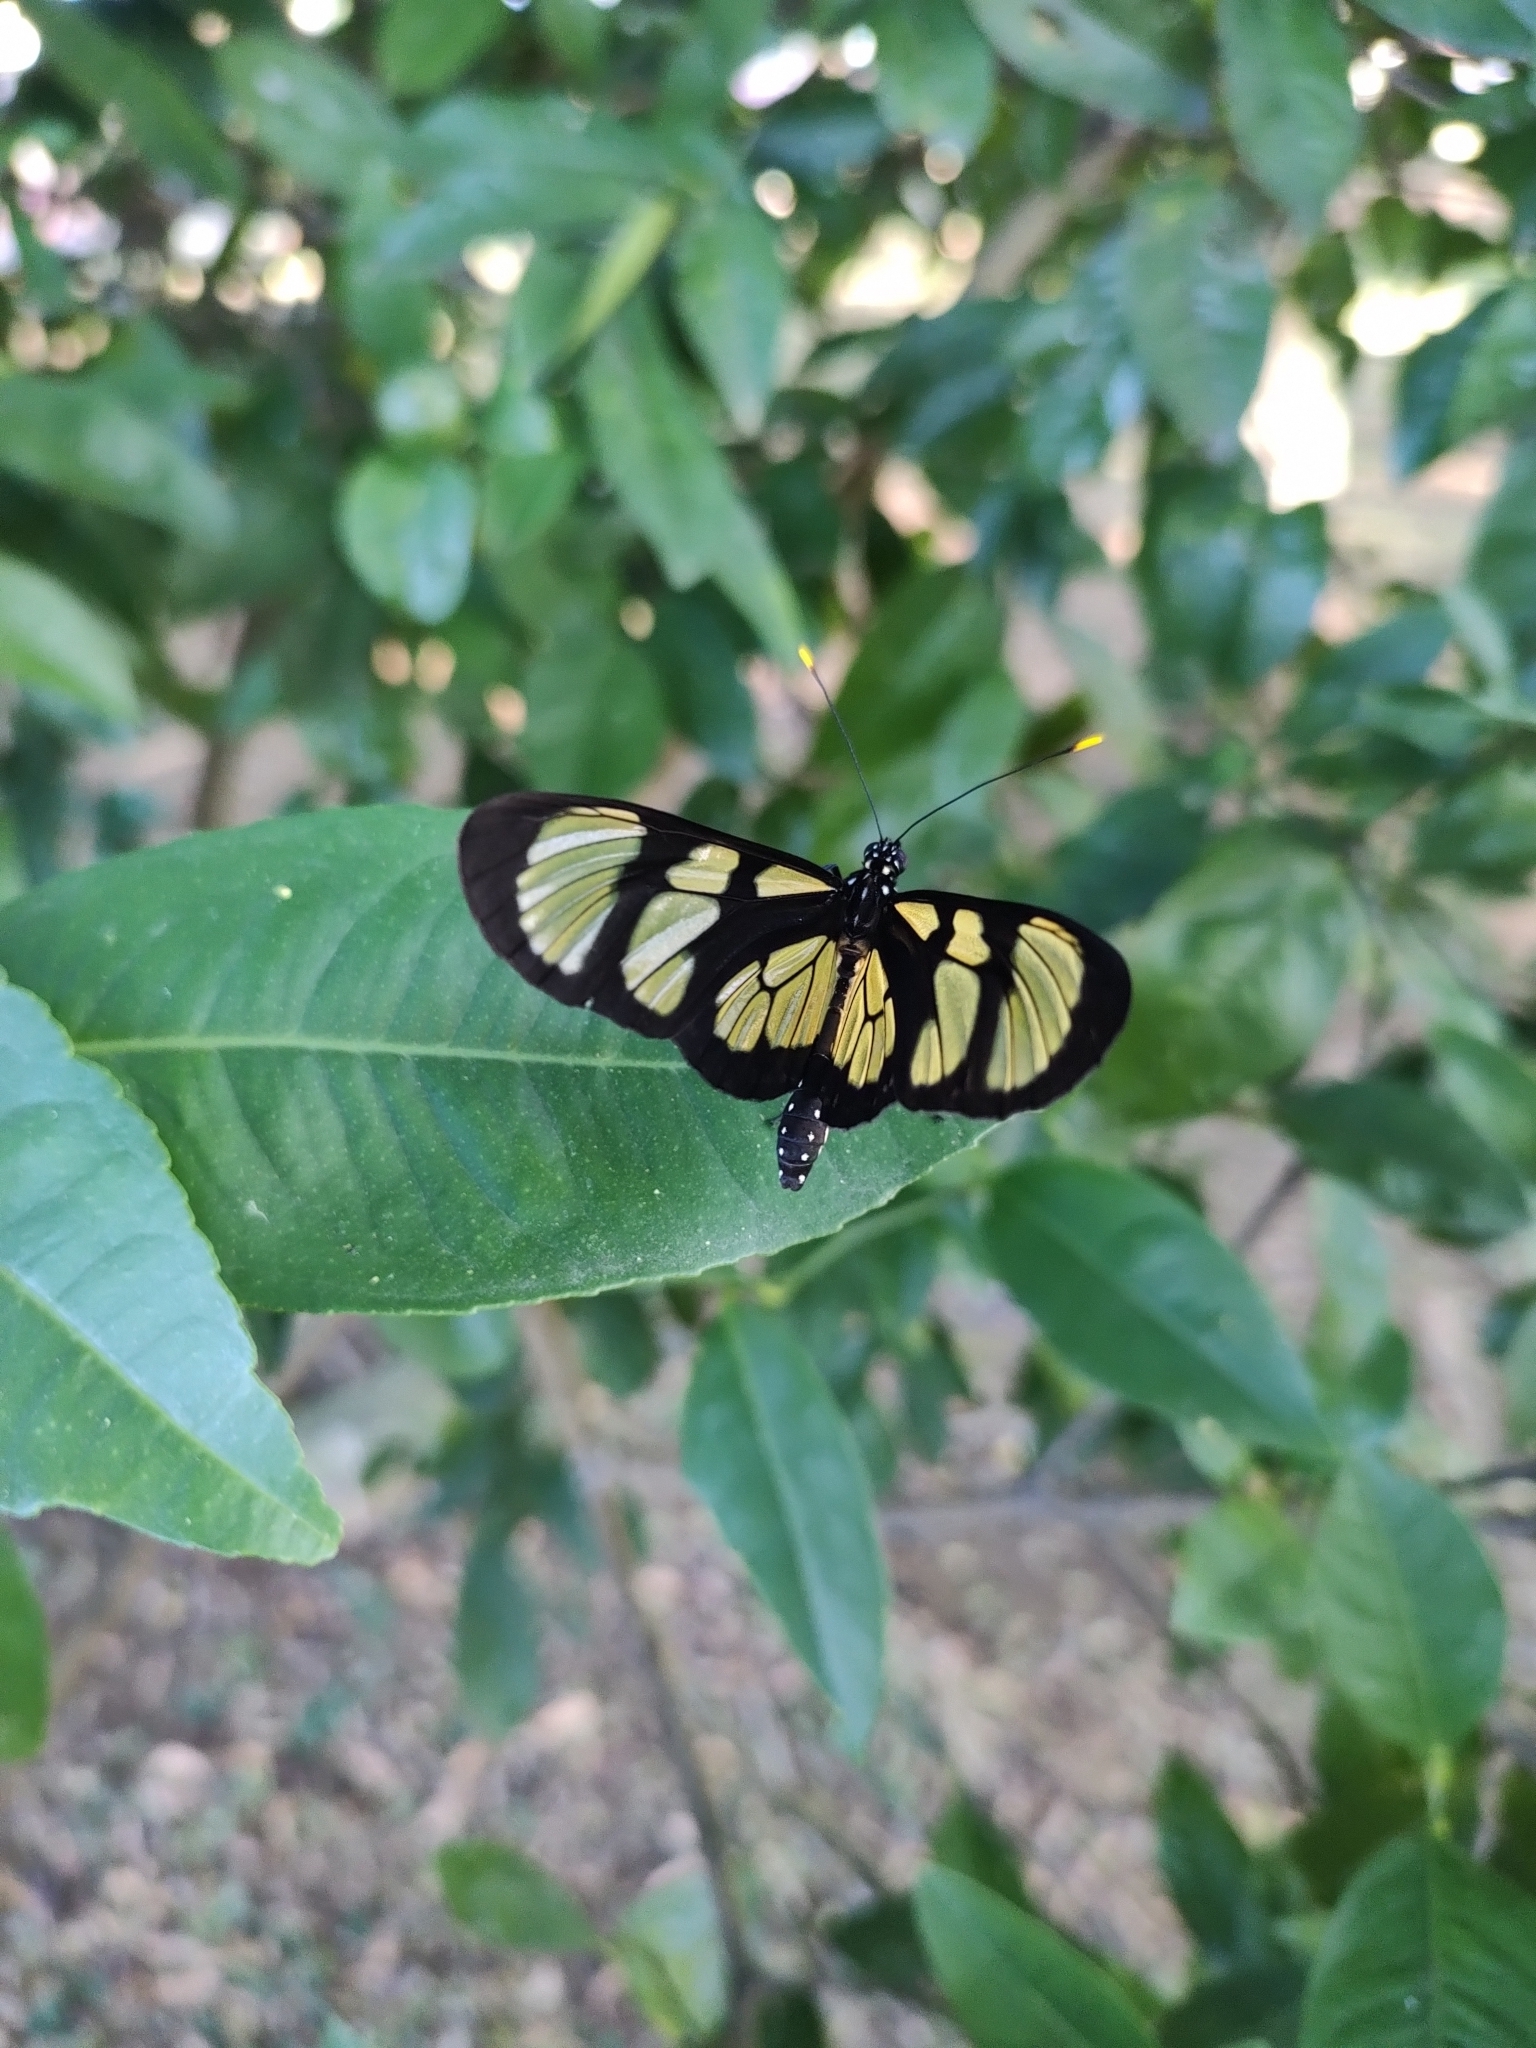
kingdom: Animalia
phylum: Arthropoda
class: Insecta
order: Lepidoptera
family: Nymphalidae
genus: Methona
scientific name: Methona themisto
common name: Themisto amberwing
